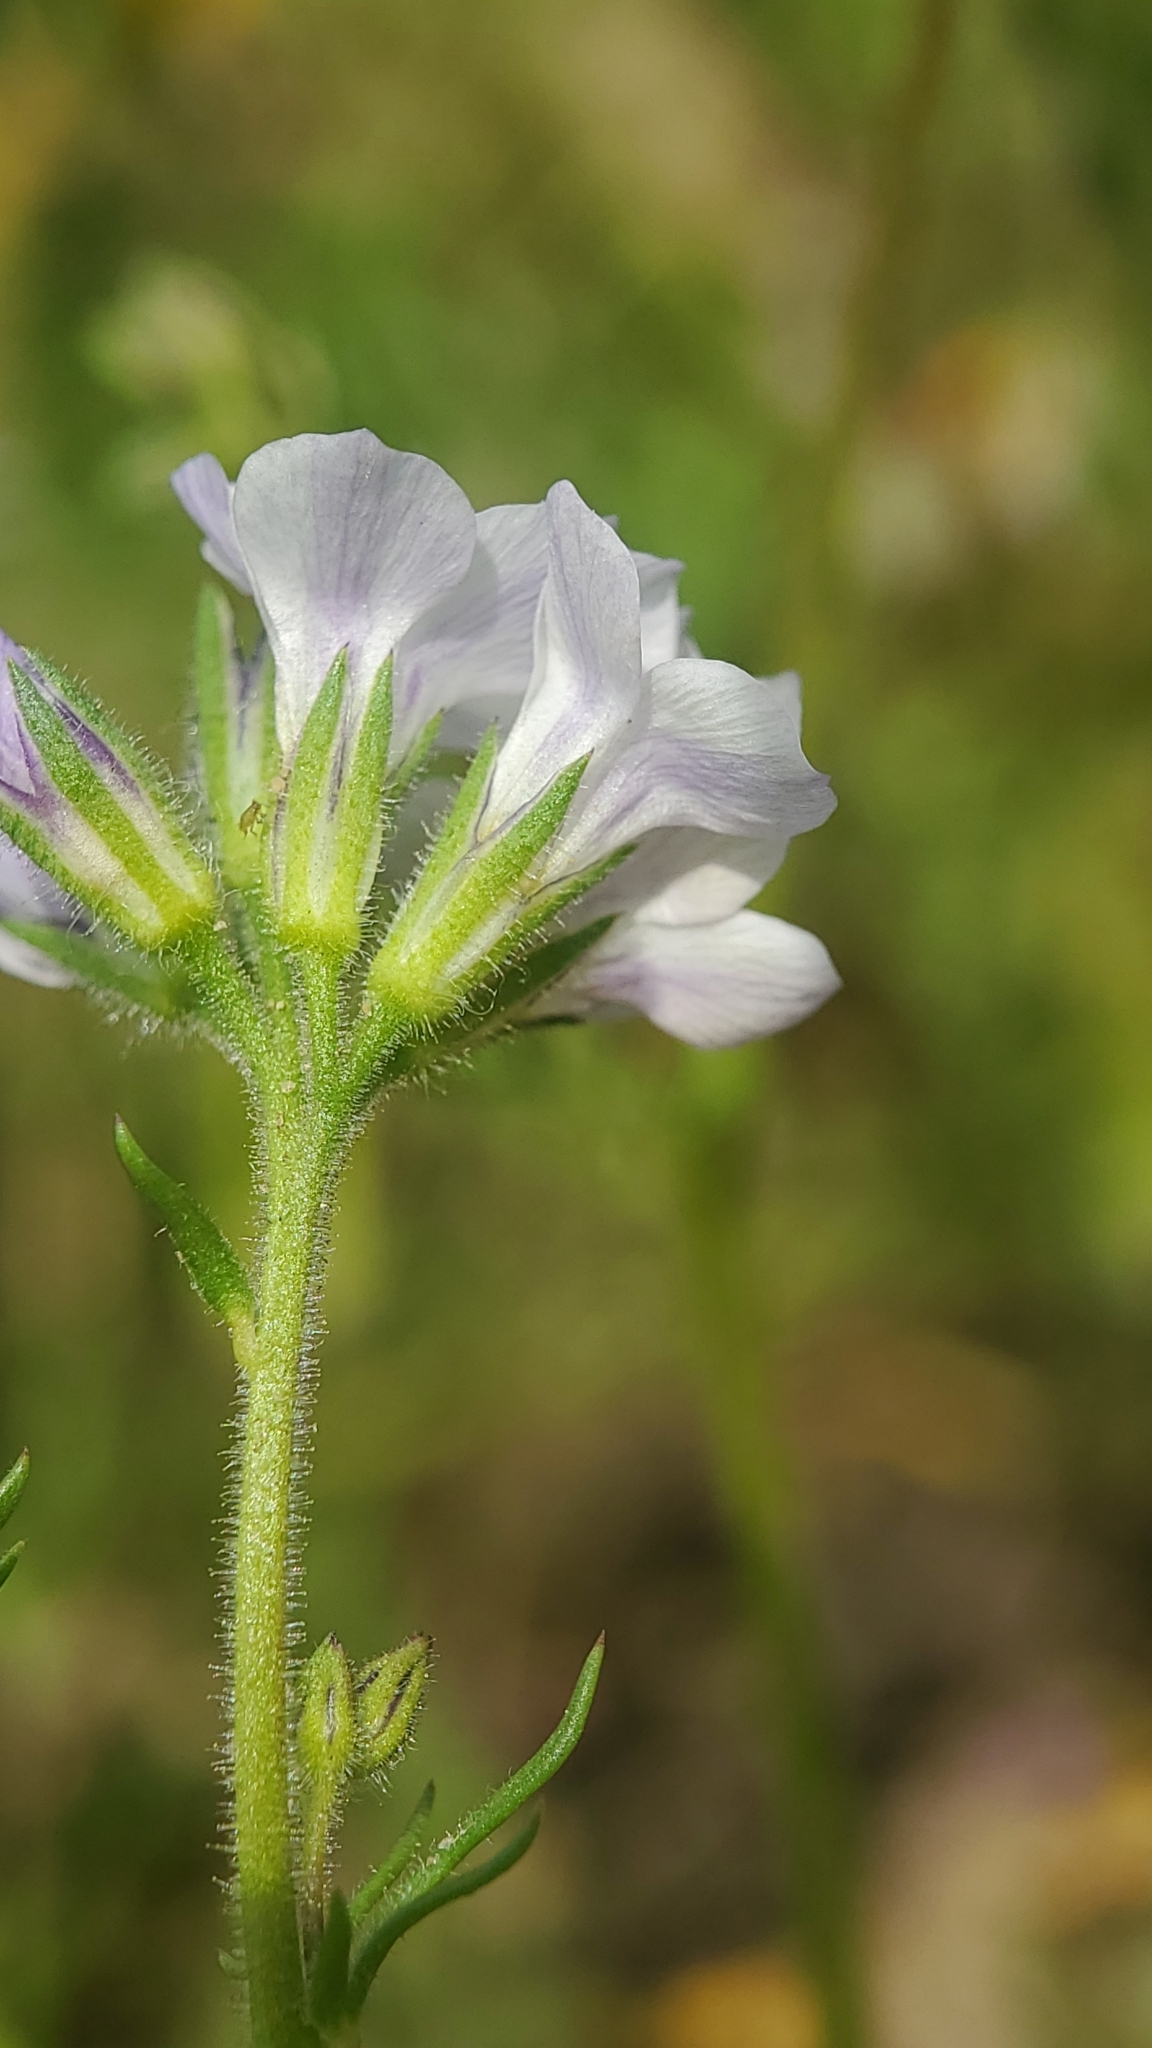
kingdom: Plantae
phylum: Tracheophyta
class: Magnoliopsida
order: Ericales
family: Polemoniaceae
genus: Gilia
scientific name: Gilia angelensis
